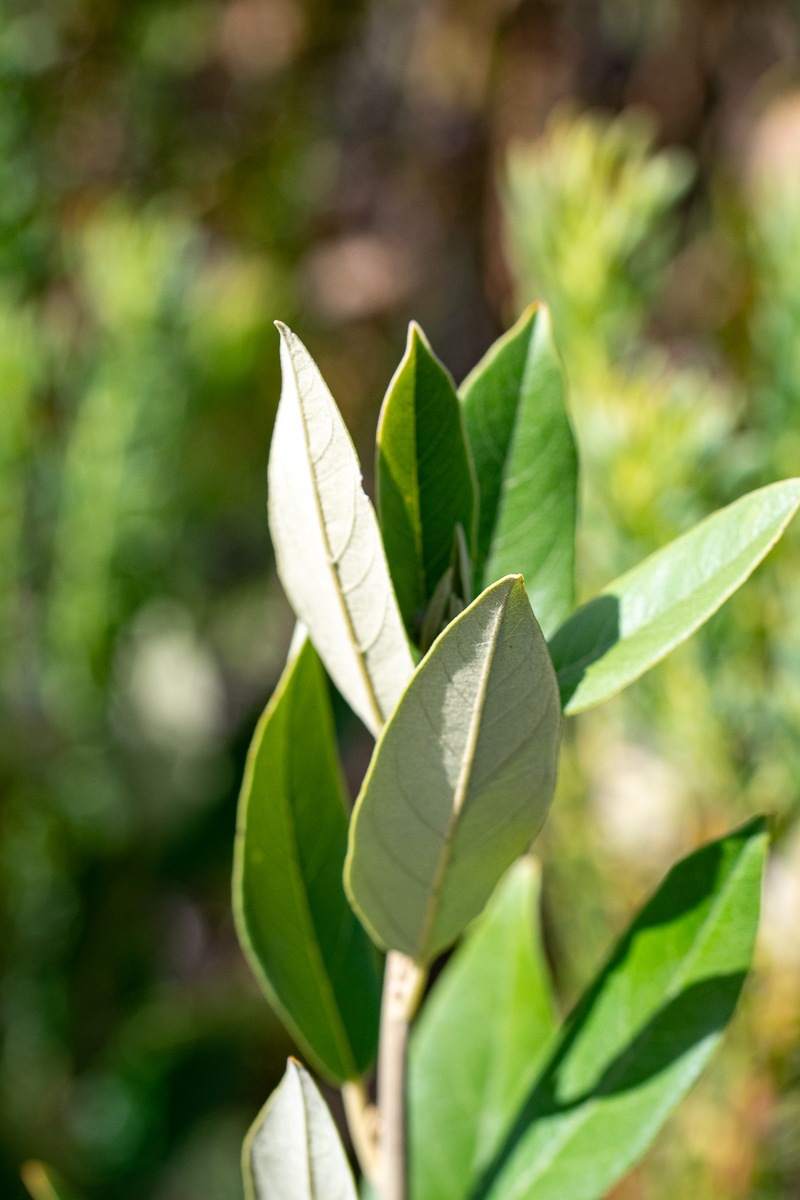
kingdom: Plantae
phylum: Tracheophyta
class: Magnoliopsida
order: Malpighiales
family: Achariaceae
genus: Kiggelaria
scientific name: Kiggelaria africana
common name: Wild peach
